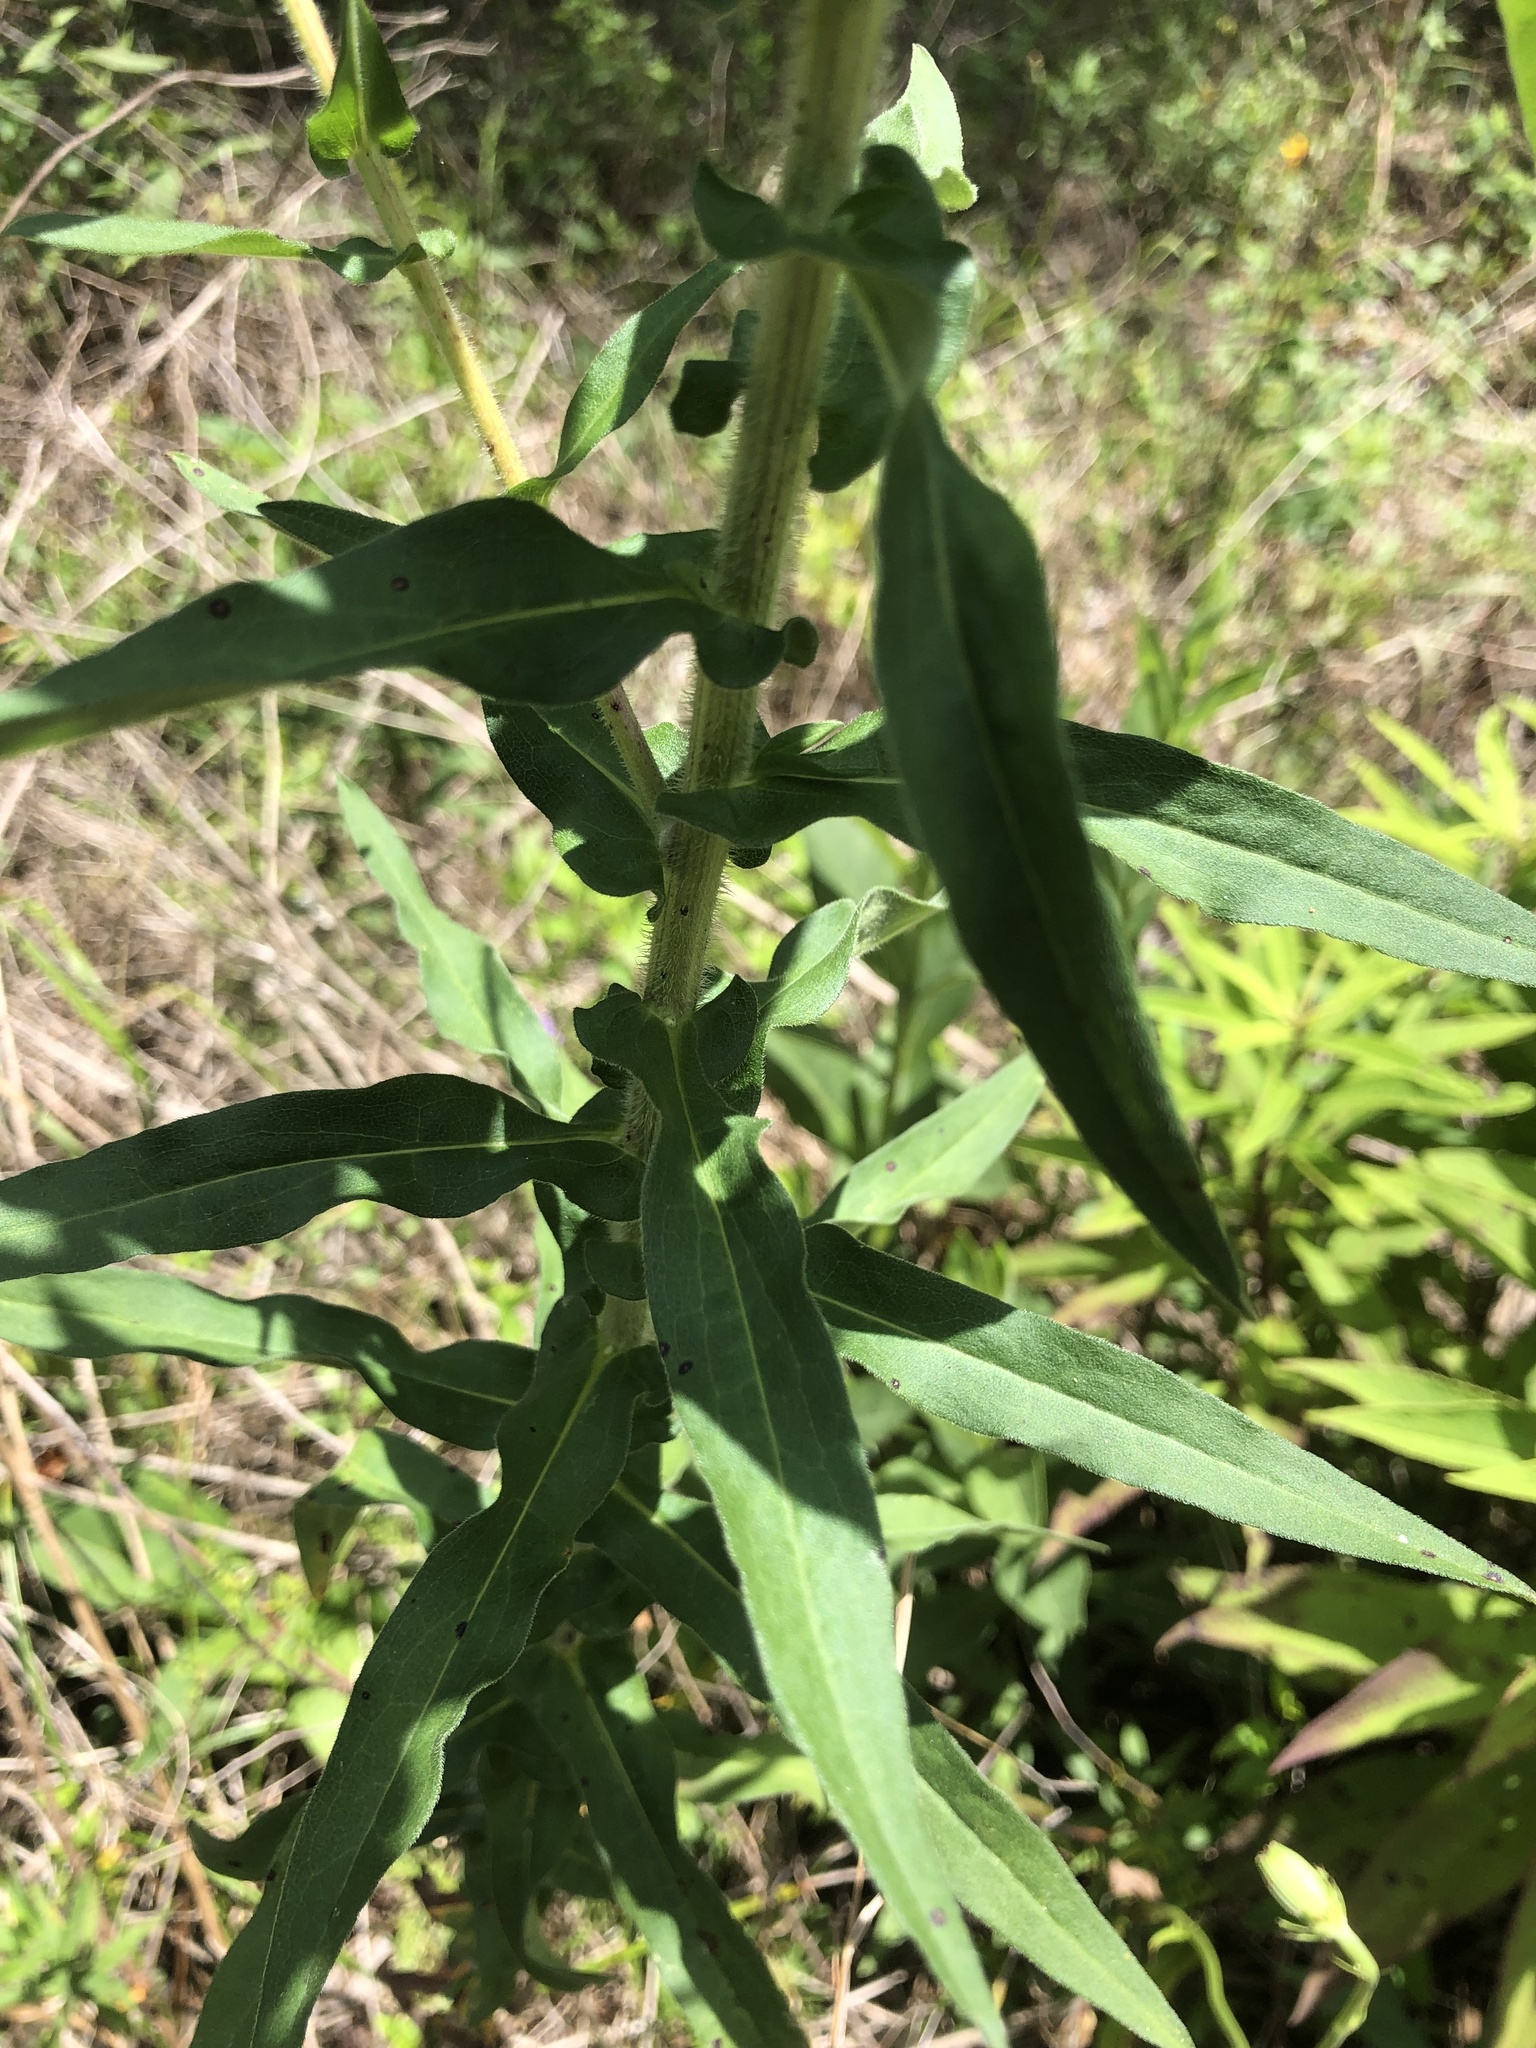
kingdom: Plantae
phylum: Tracheophyta
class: Magnoliopsida
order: Asterales
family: Asteraceae
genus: Symphyotrichum
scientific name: Symphyotrichum novae-angliae
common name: Michaelmas daisy
